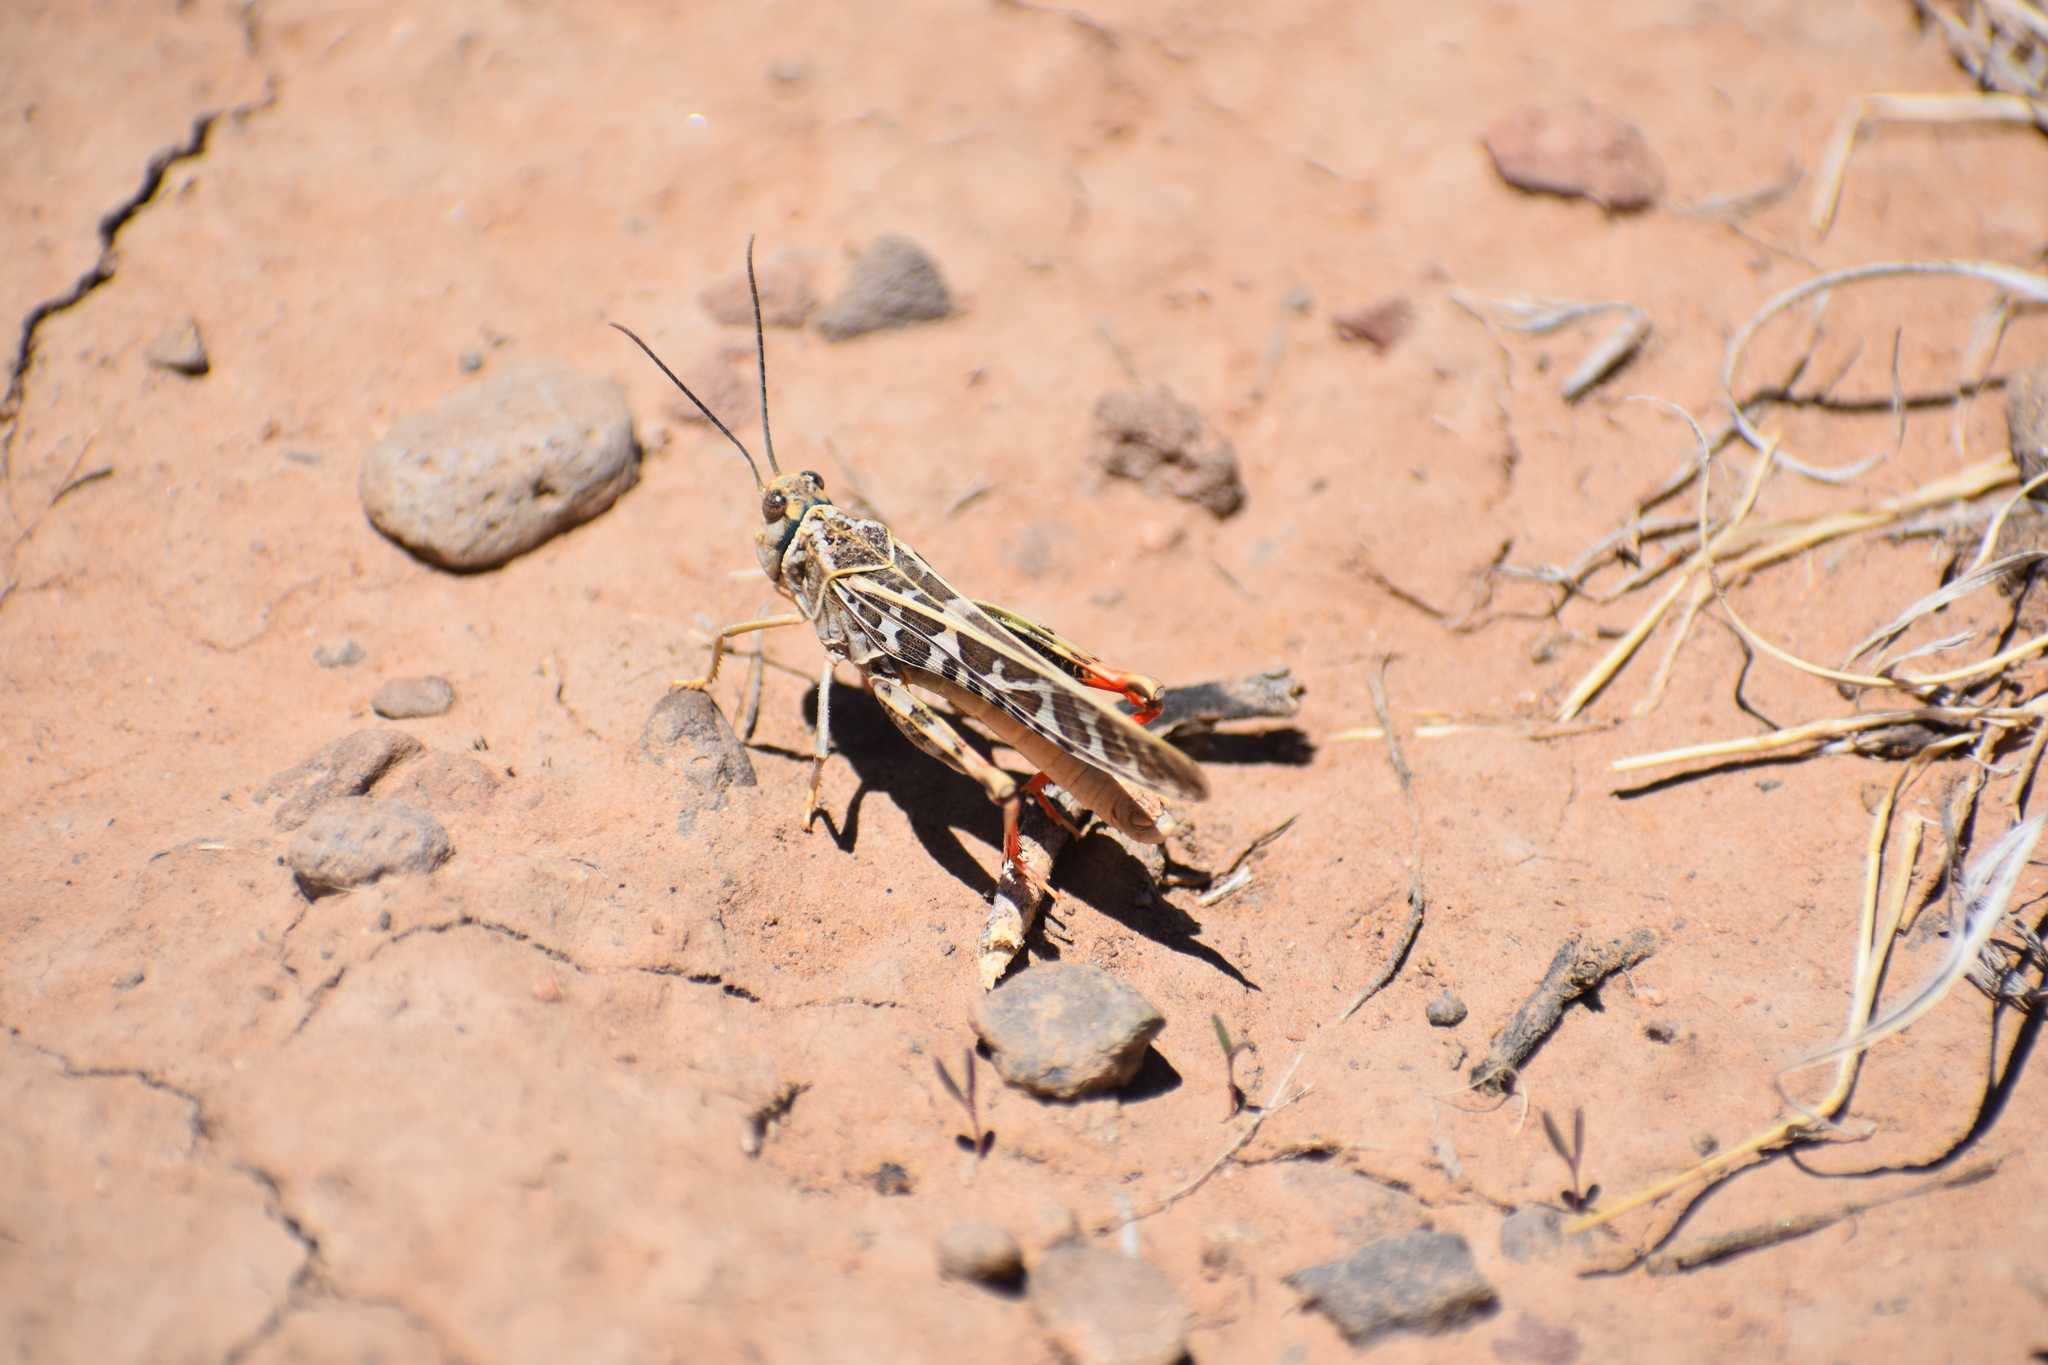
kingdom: Animalia
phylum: Arthropoda
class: Insecta
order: Orthoptera
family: Acrididae
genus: Xanthippus
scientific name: Xanthippus corallipes
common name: Redshanked grasshopper
